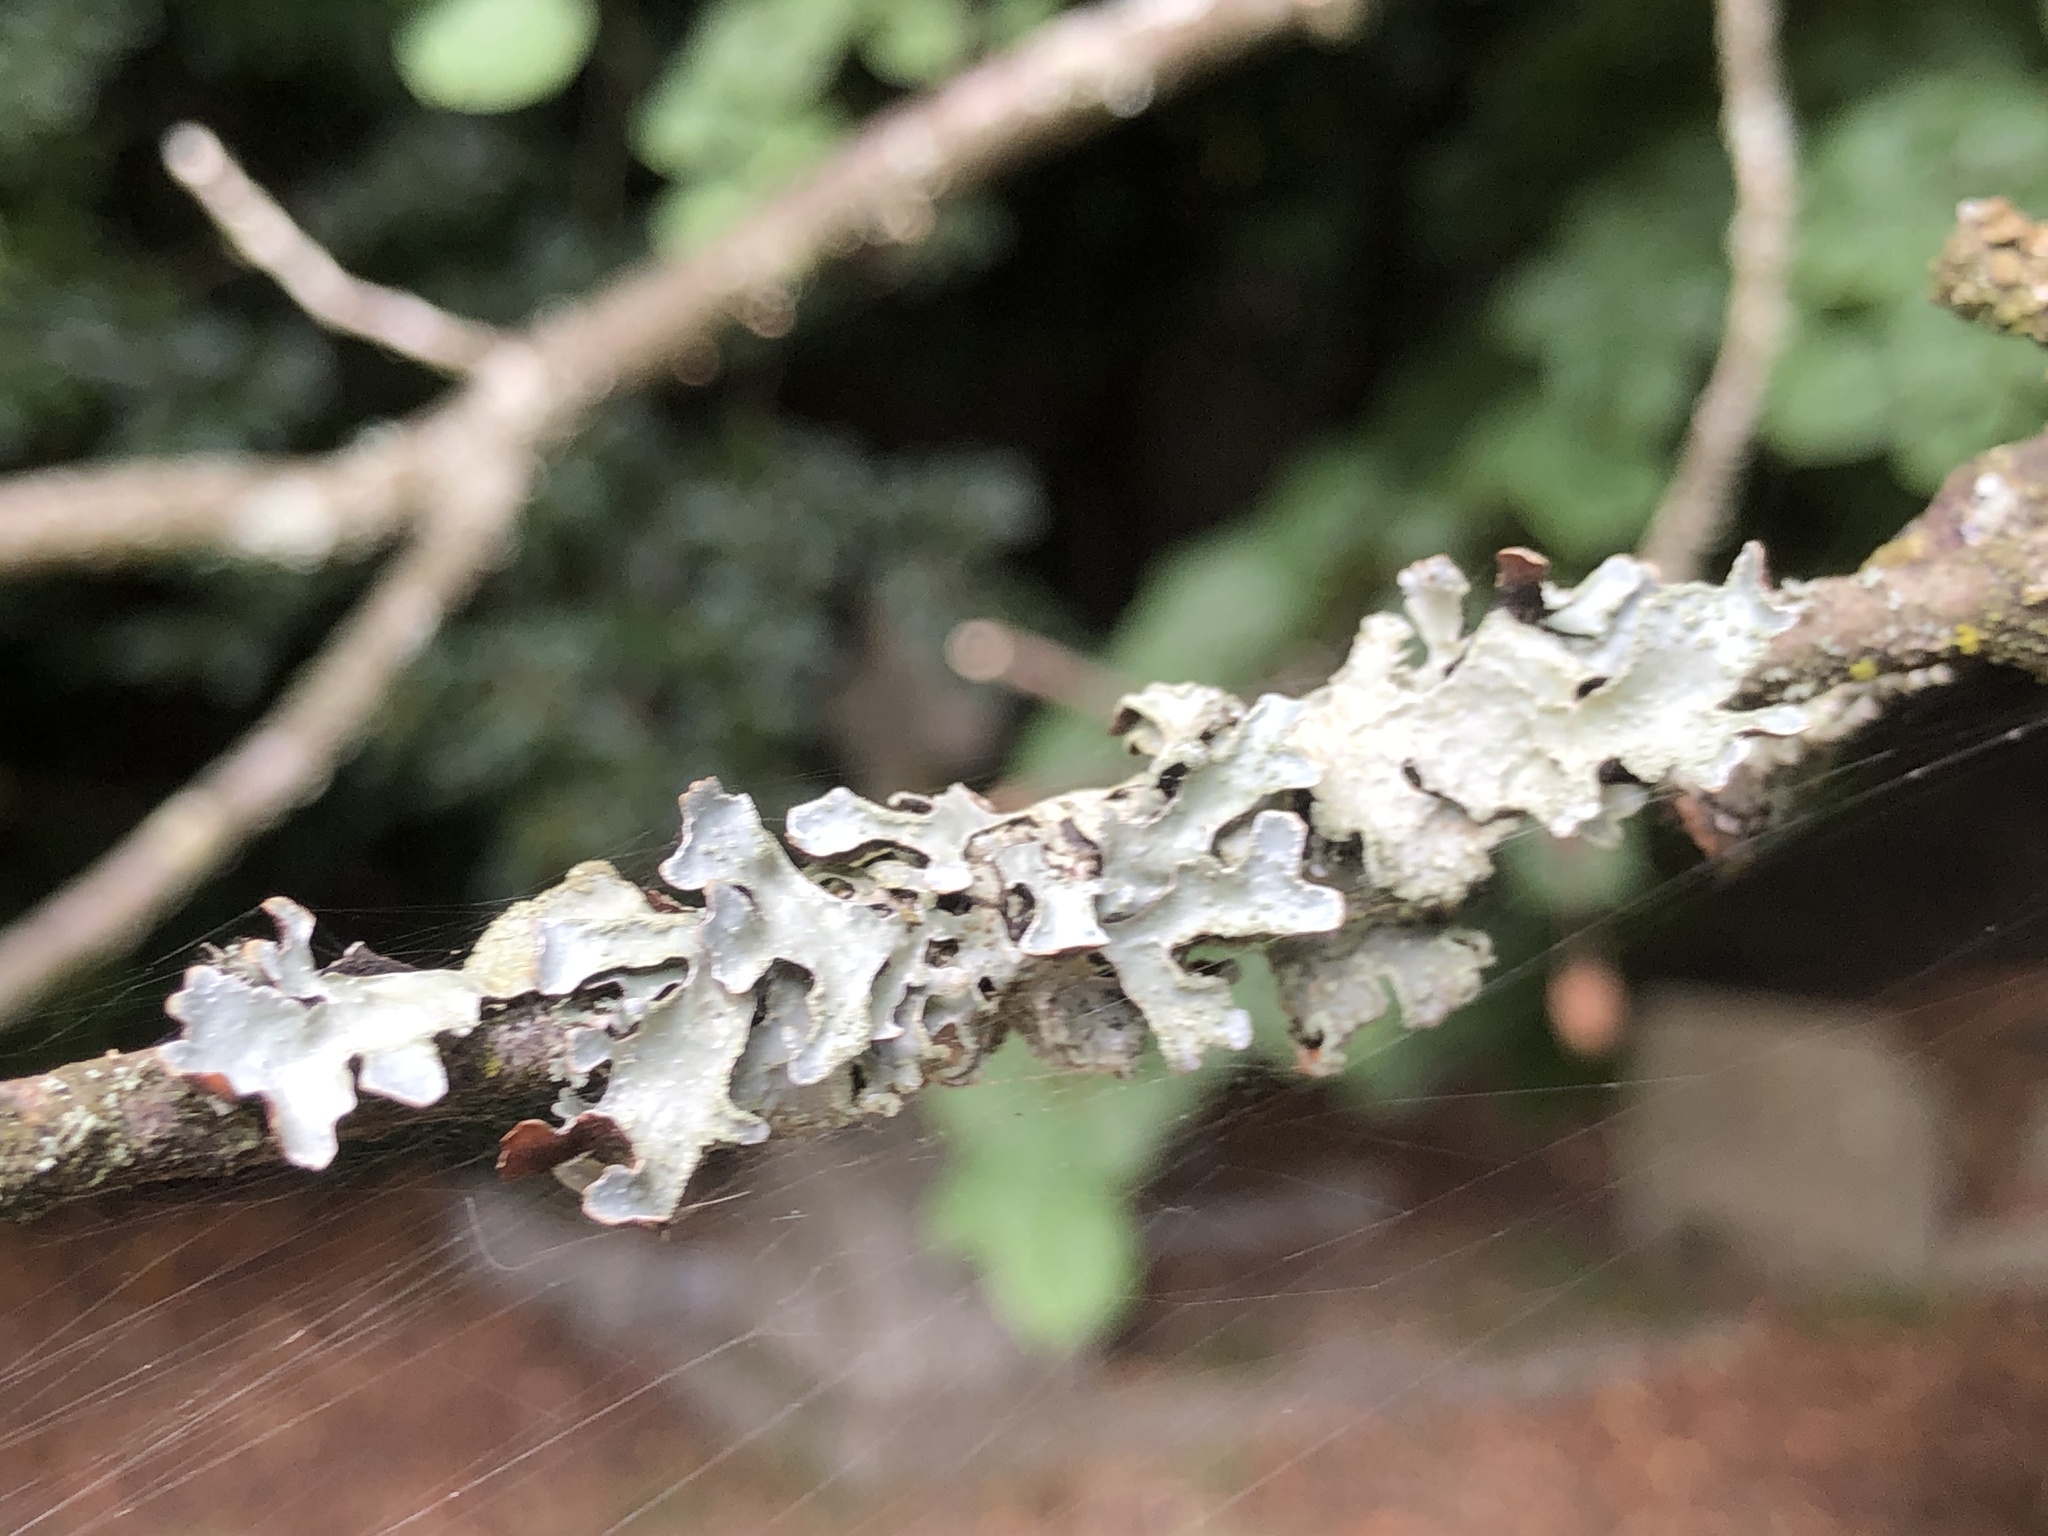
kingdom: Fungi
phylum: Ascomycota
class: Lecanoromycetes
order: Lecanorales
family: Parmeliaceae
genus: Parmelia
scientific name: Parmelia sulcata
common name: Netted shield lichen
